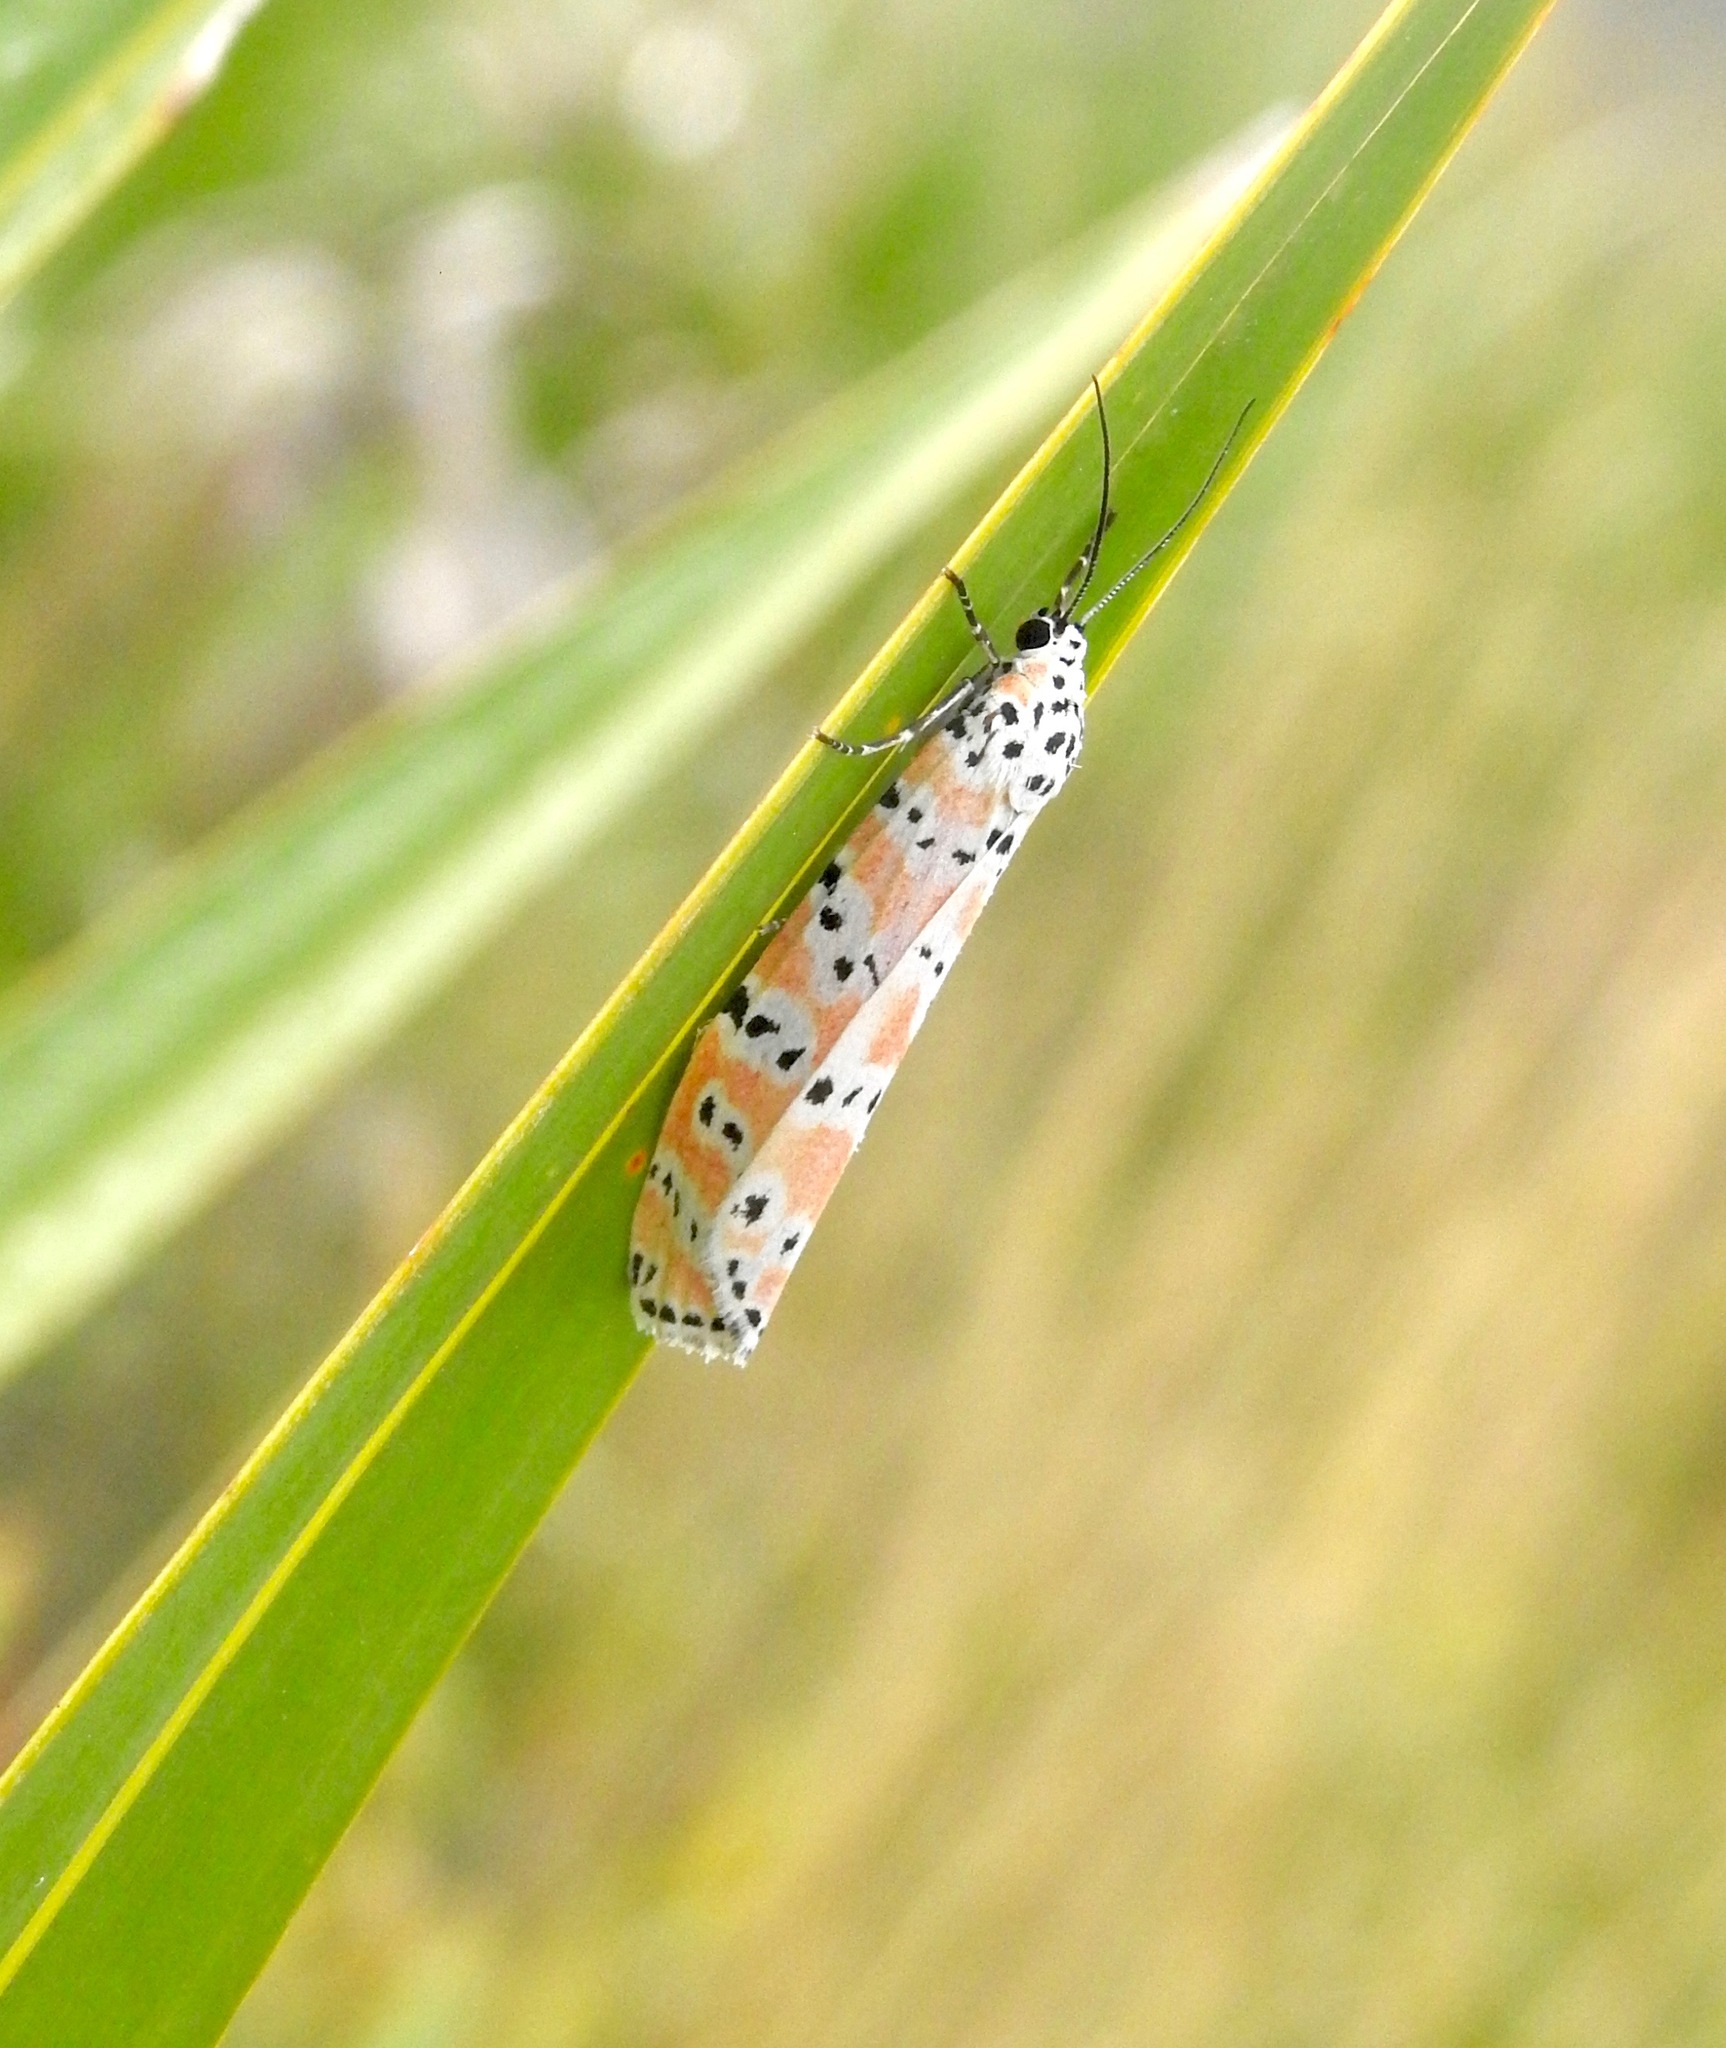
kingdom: Animalia
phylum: Arthropoda
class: Insecta
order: Lepidoptera
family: Erebidae
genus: Utetheisa
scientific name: Utetheisa ornatrix
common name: Beautiful utetheisa
